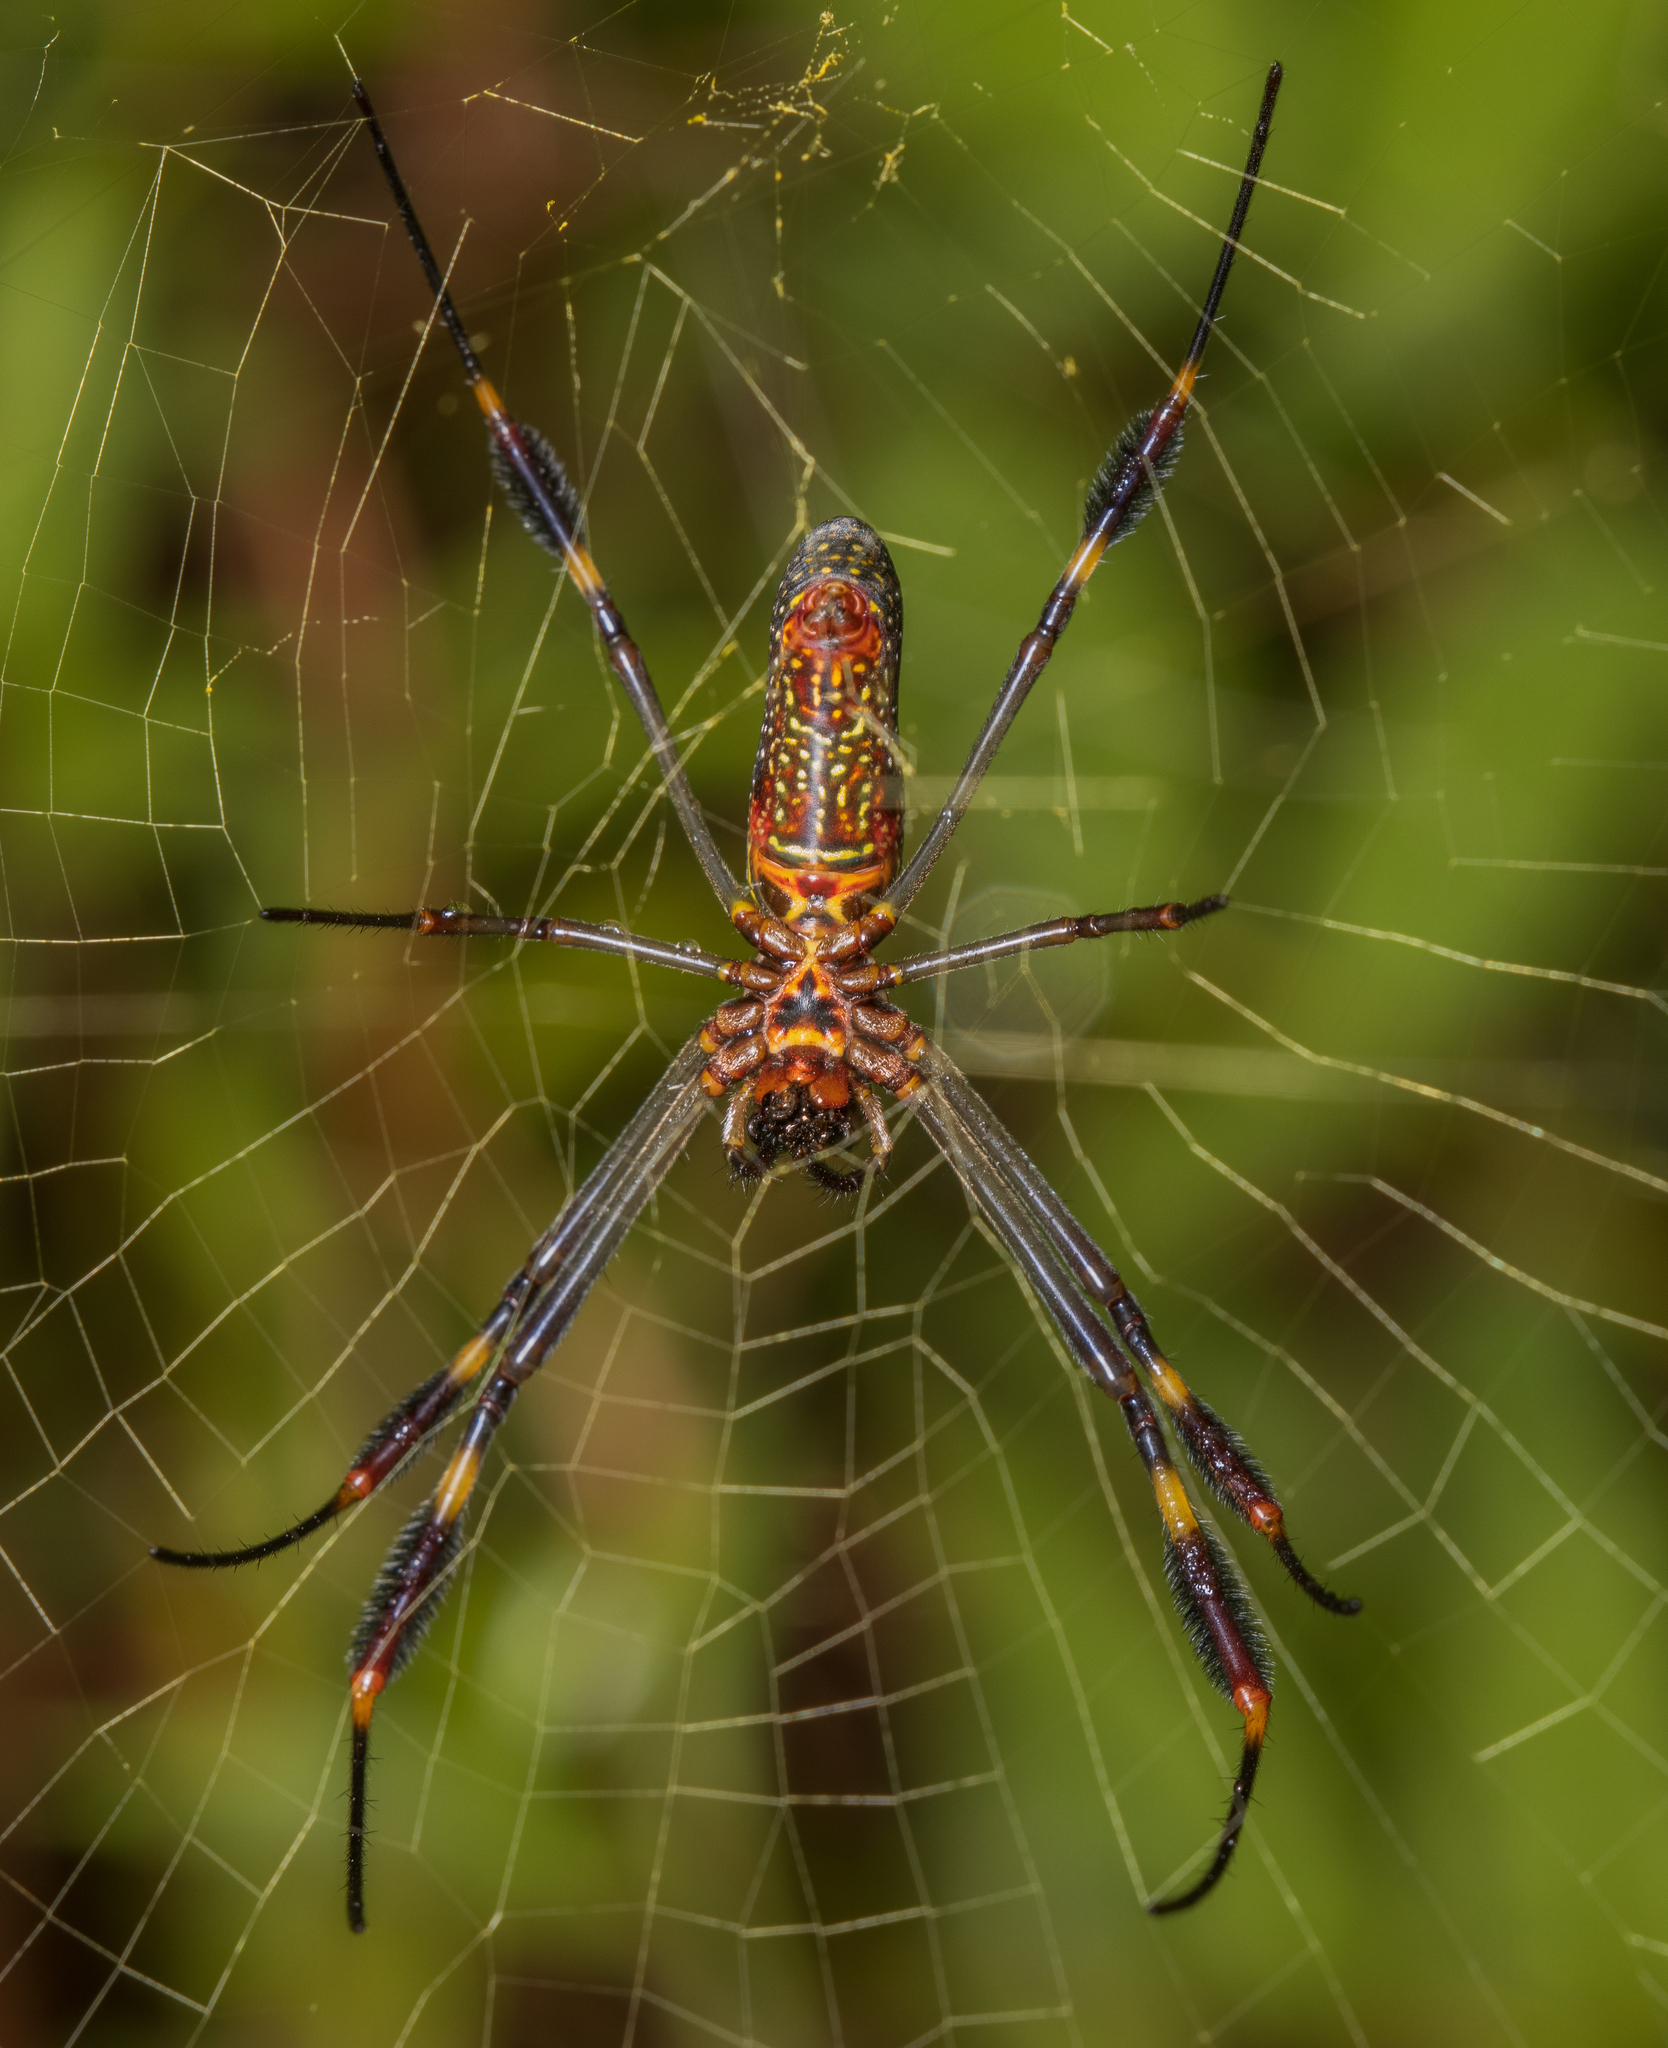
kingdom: Animalia
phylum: Arthropoda
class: Arachnida
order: Araneae
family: Araneidae
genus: Trichonephila
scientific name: Trichonephila clavipes
